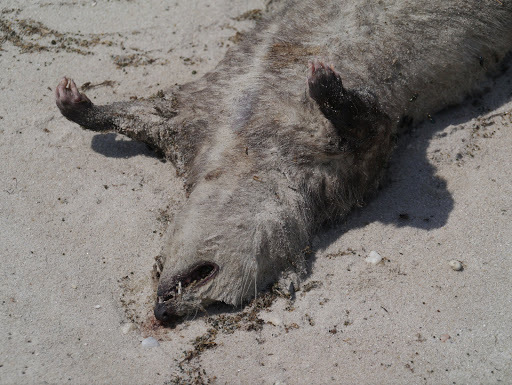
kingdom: Animalia
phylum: Chordata
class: Mammalia
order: Didelphimorphia
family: Didelphidae
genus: Didelphis
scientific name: Didelphis virginiana
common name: Virginia opossum
